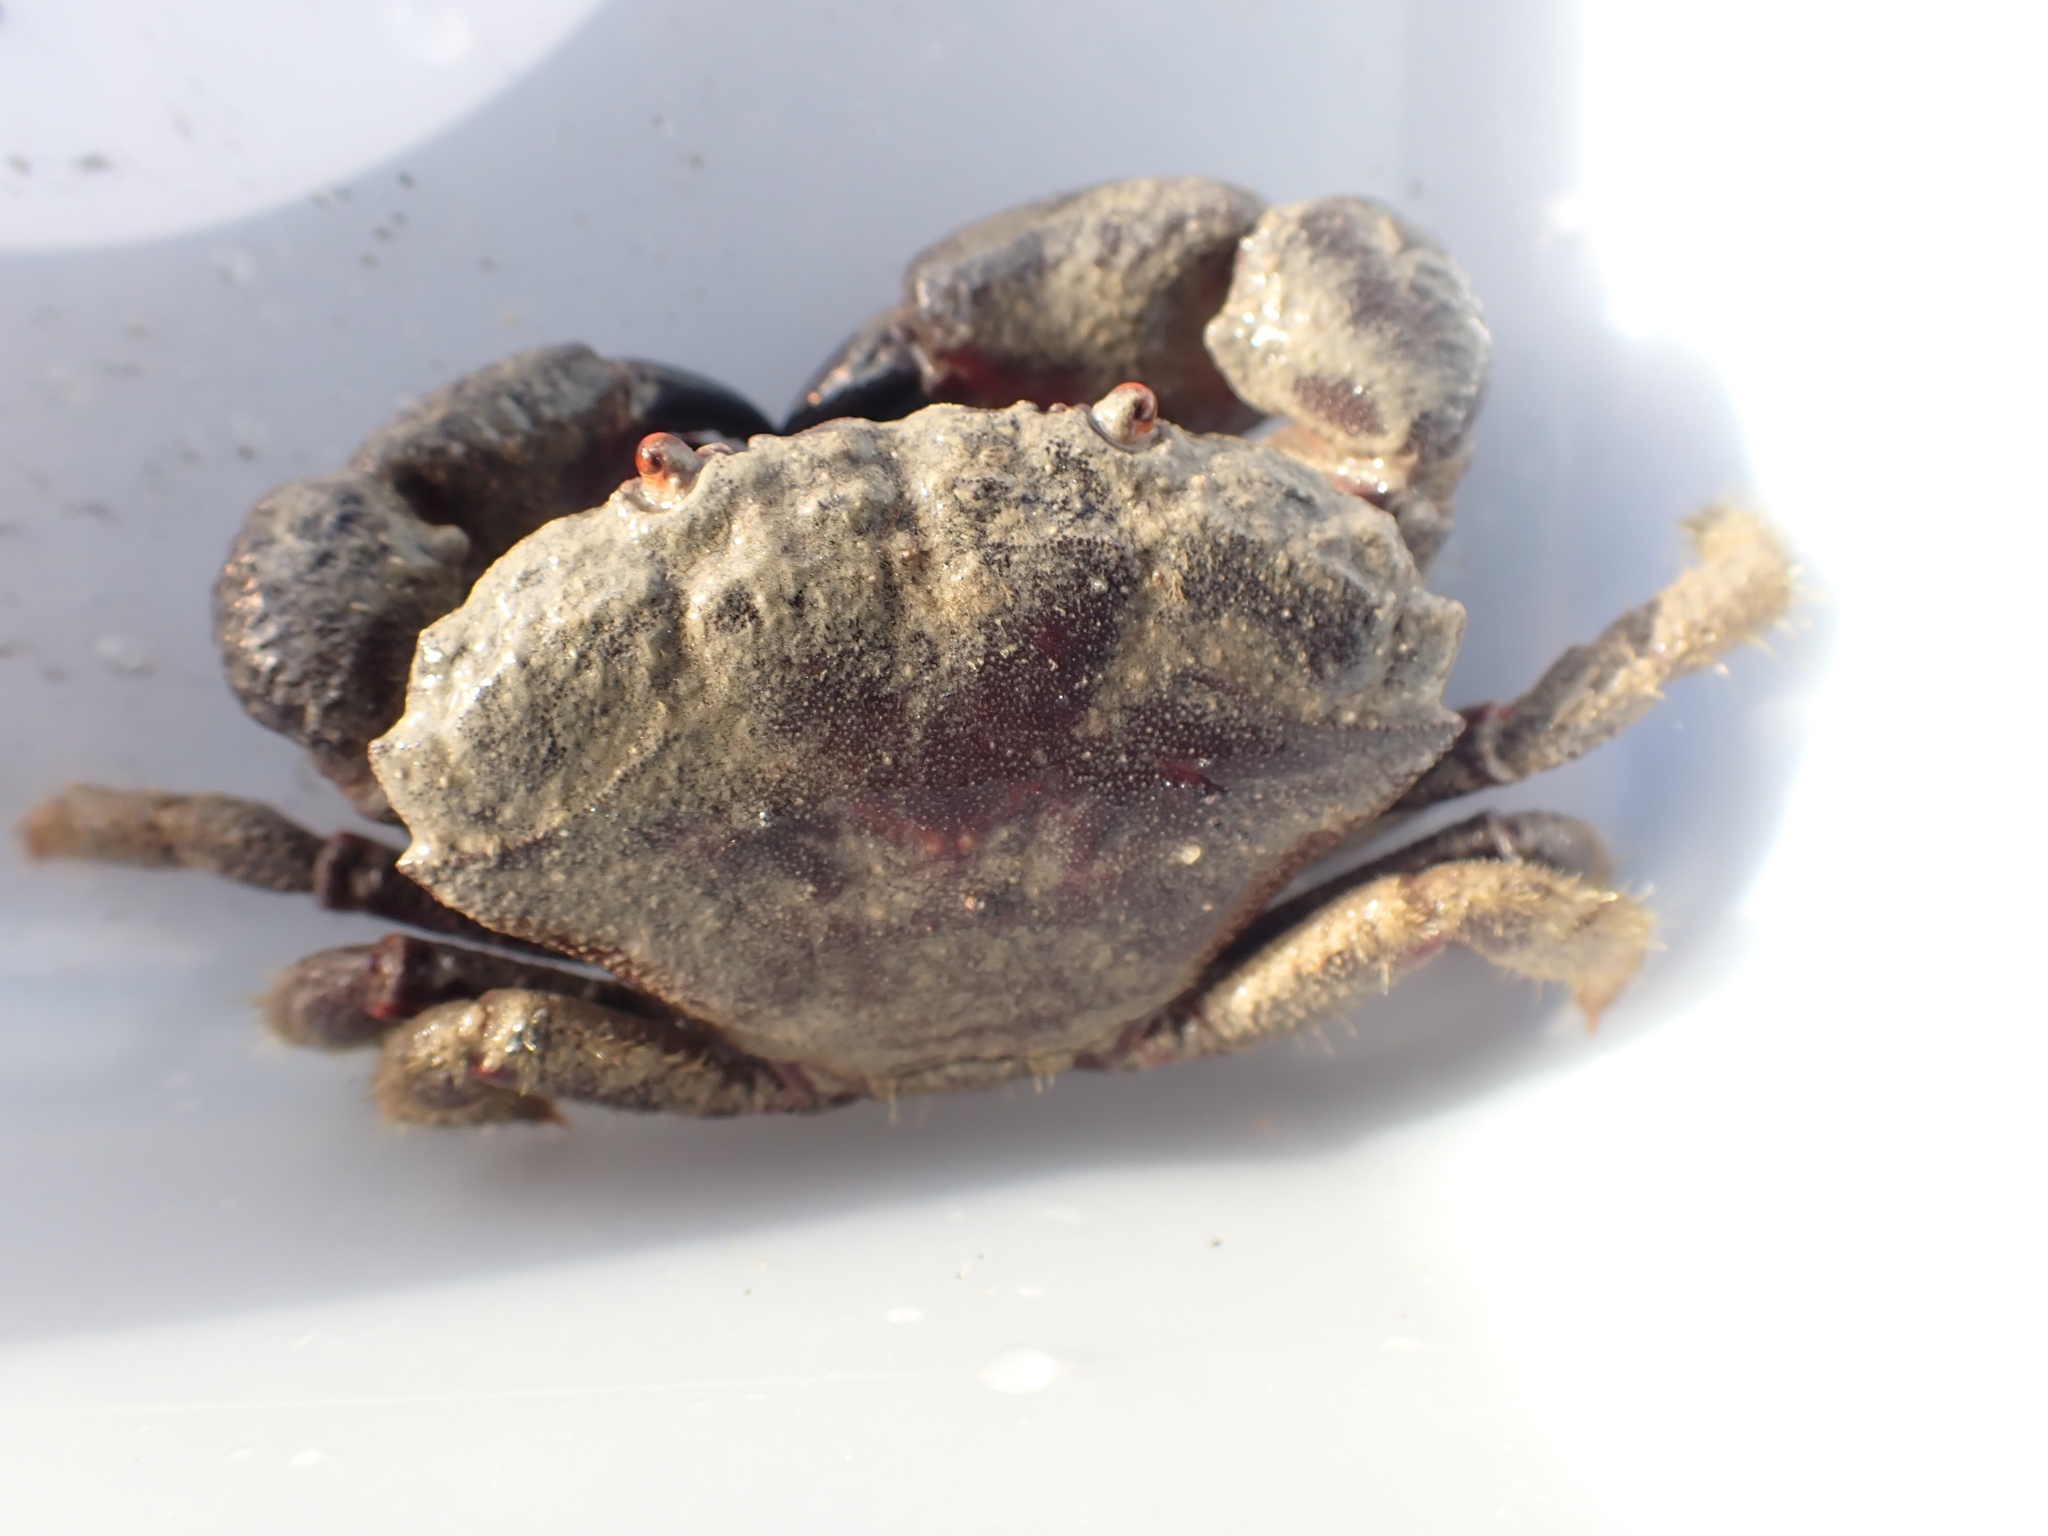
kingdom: Animalia
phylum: Arthropoda
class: Malacostraca
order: Decapoda
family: Oziidae
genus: Ozius
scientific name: Ozius deplanatus
